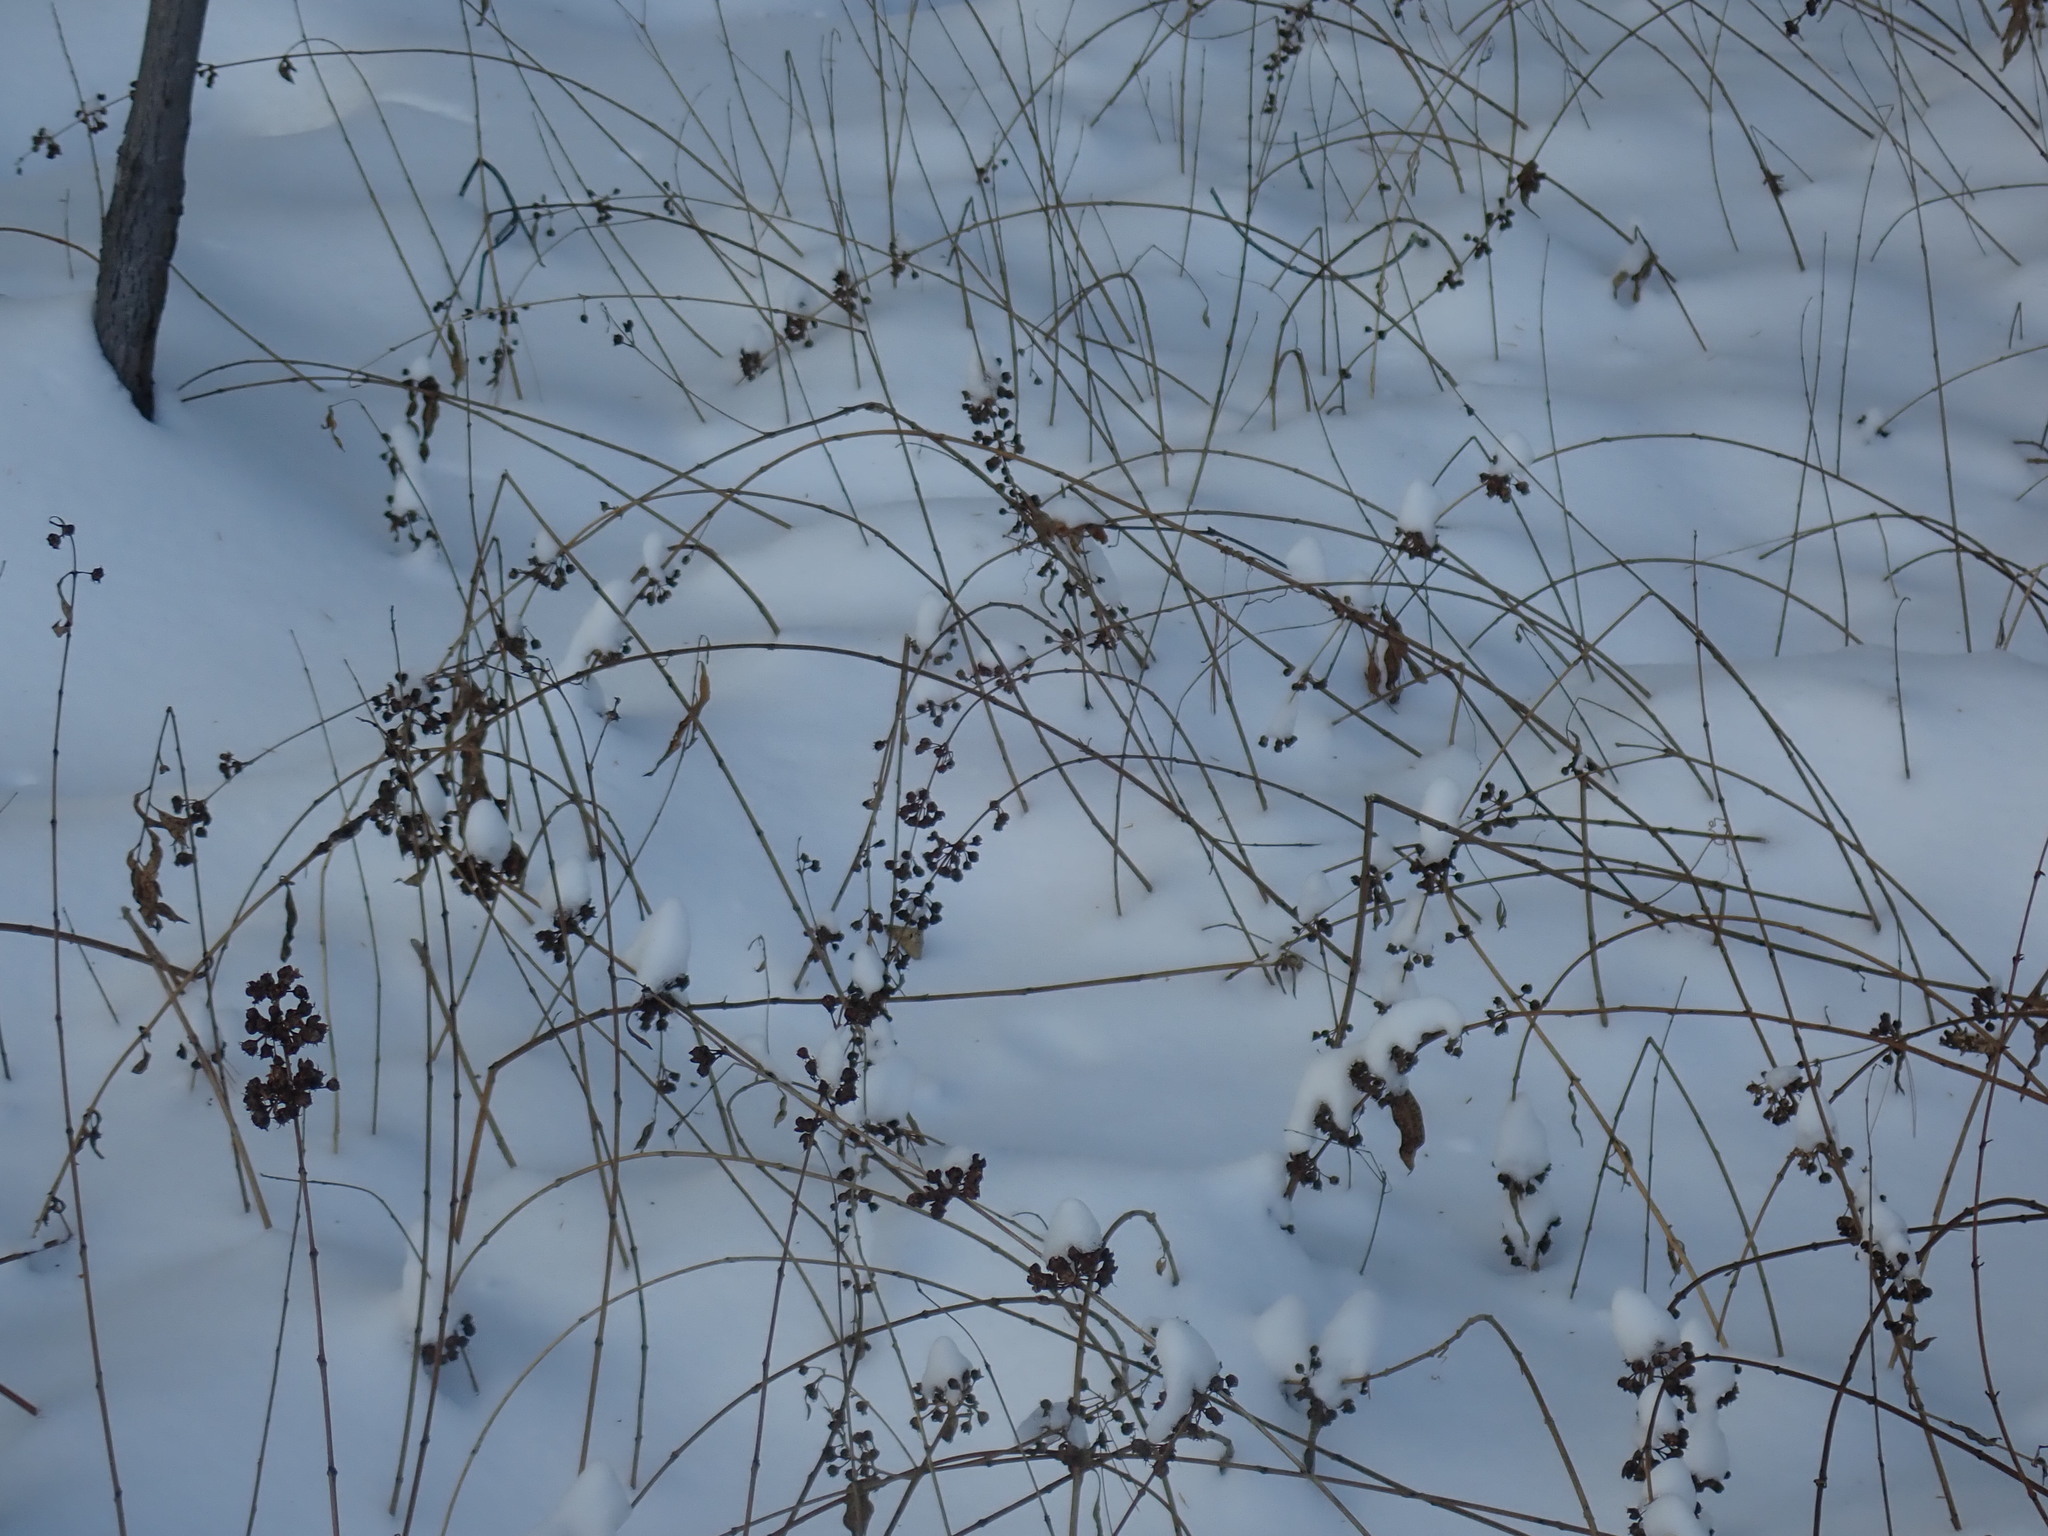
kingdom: Plantae
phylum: Tracheophyta
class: Magnoliopsida
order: Myrtales
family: Lythraceae
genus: Decodon
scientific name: Decodon verticillatus
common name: Hairy swamp loosestrife
